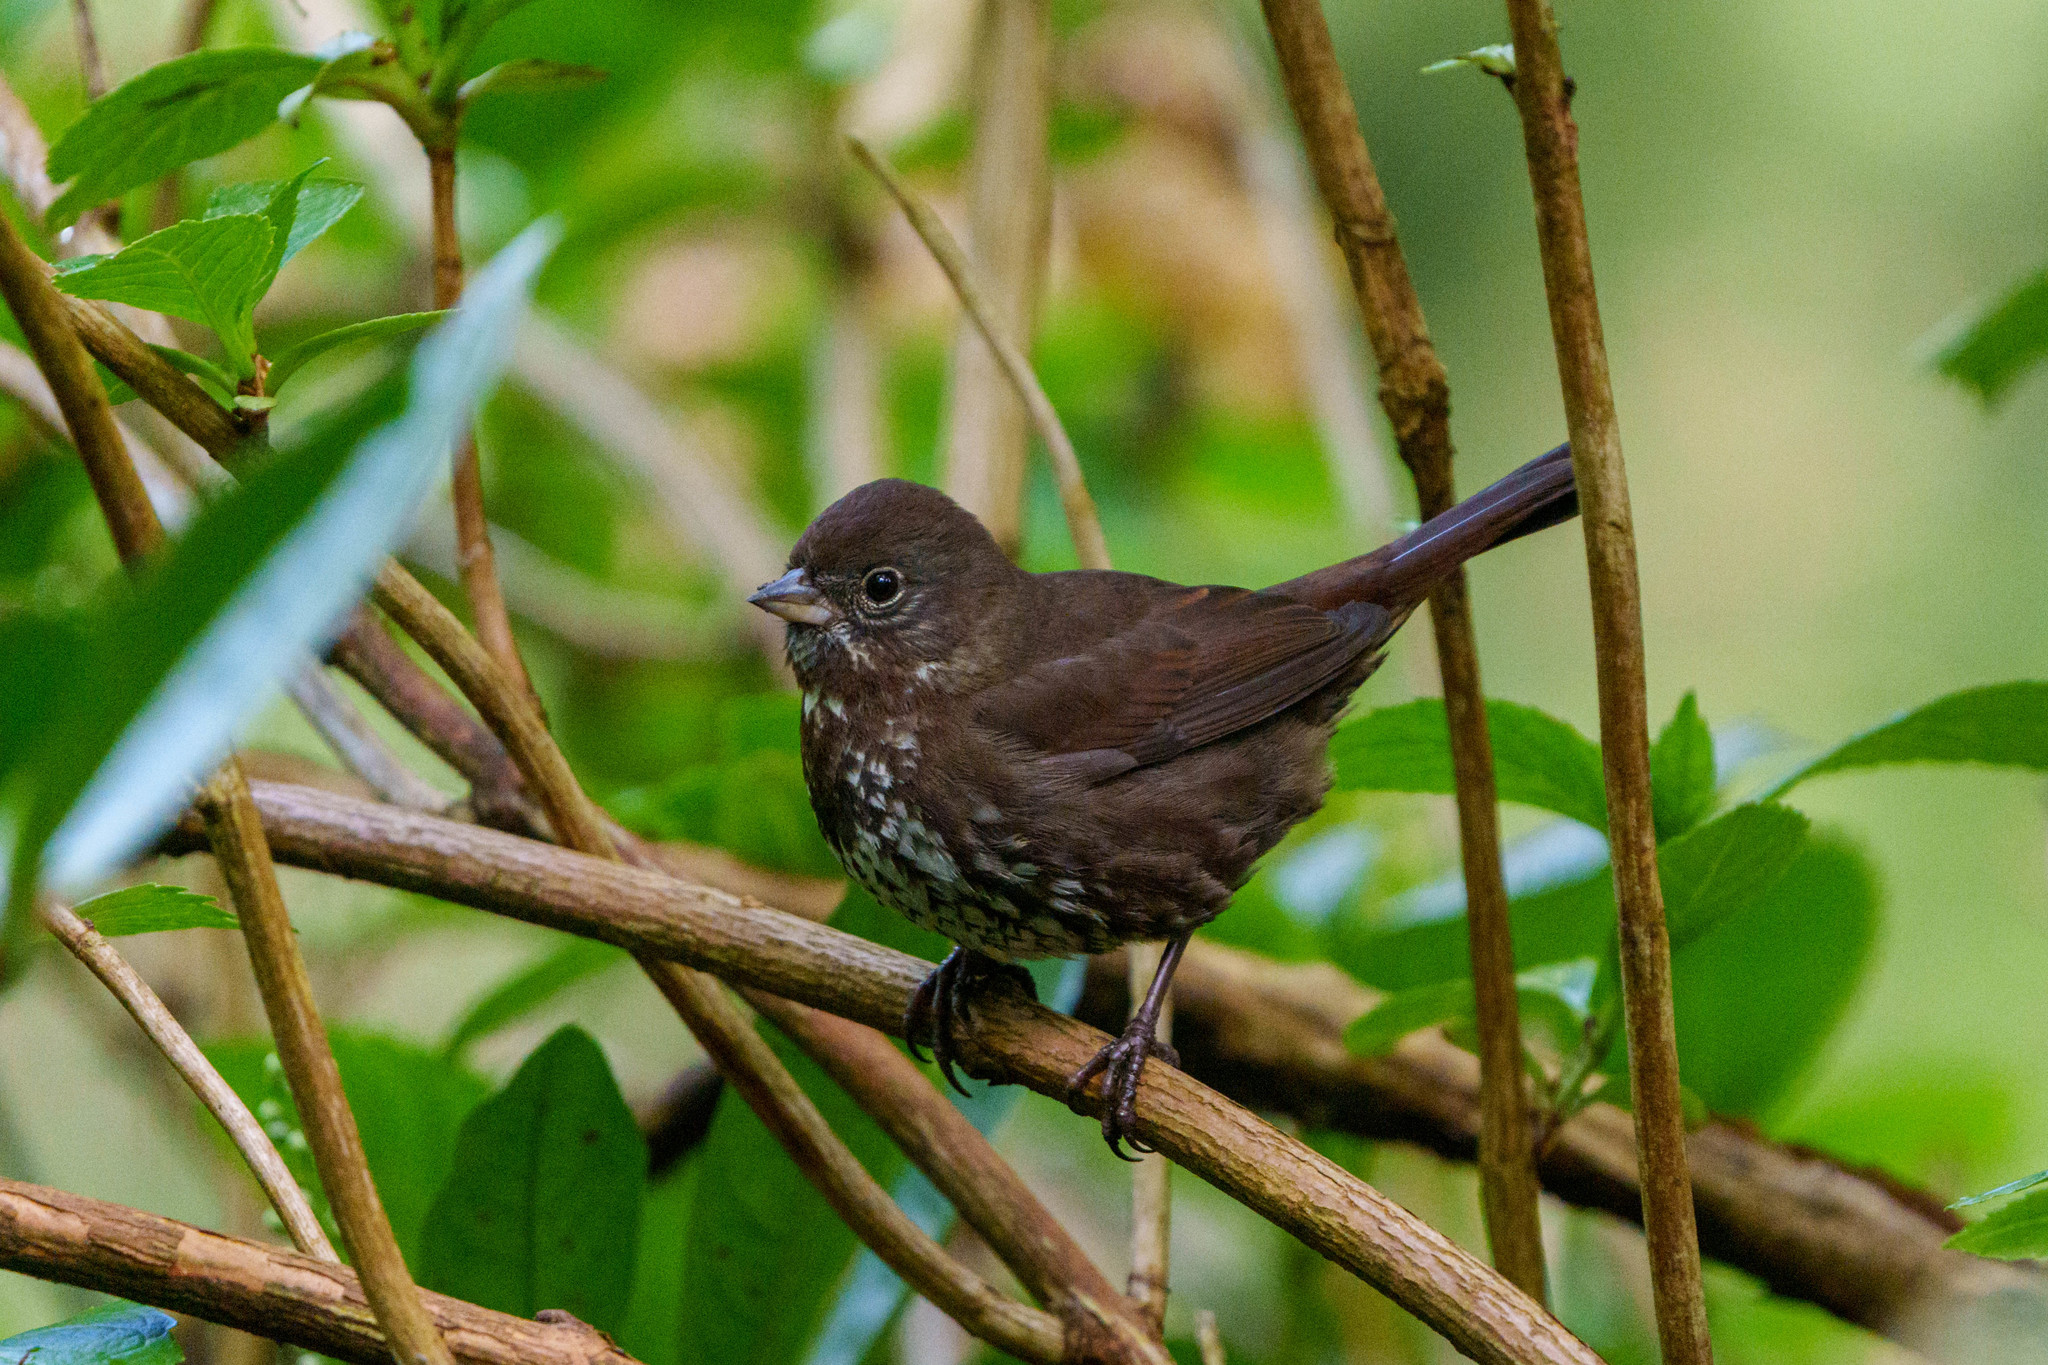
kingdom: Animalia
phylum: Chordata
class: Aves
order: Passeriformes
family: Passerellidae
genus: Passerella
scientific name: Passerella iliaca
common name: Fox sparrow
